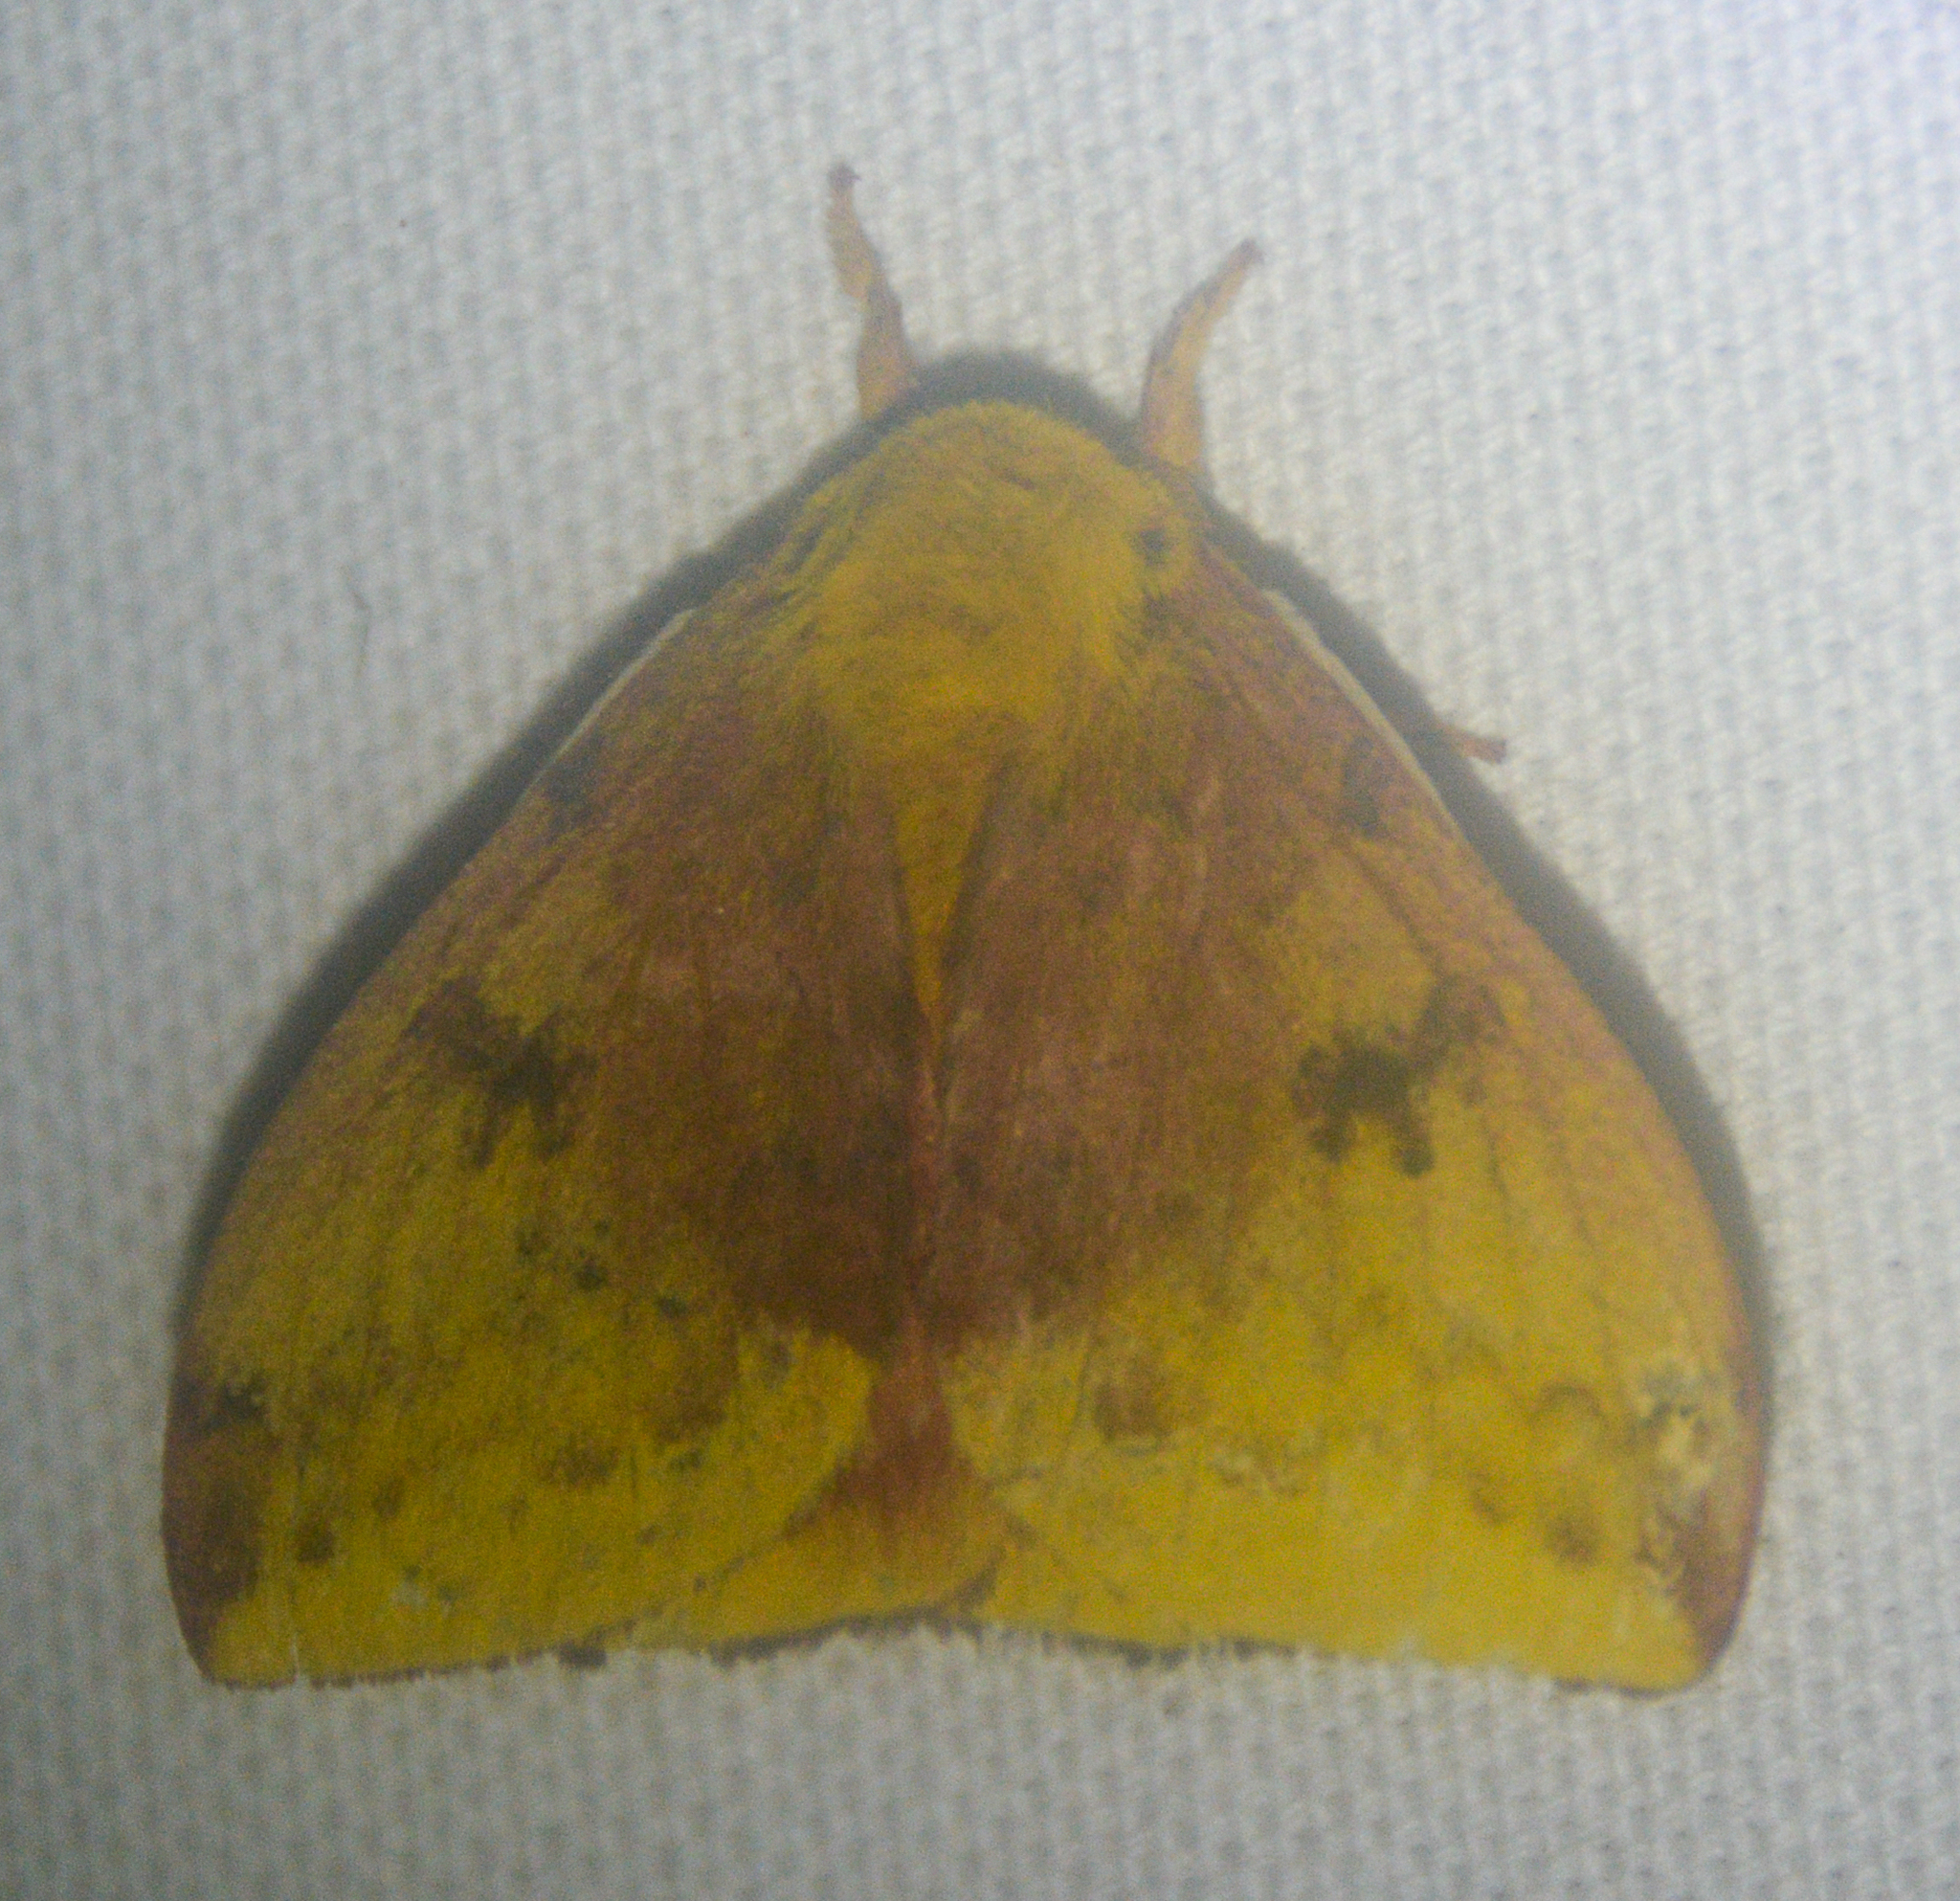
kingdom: Animalia
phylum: Arthropoda
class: Insecta
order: Lepidoptera
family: Saturniidae
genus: Automeris
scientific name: Automeris io
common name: Io moth
